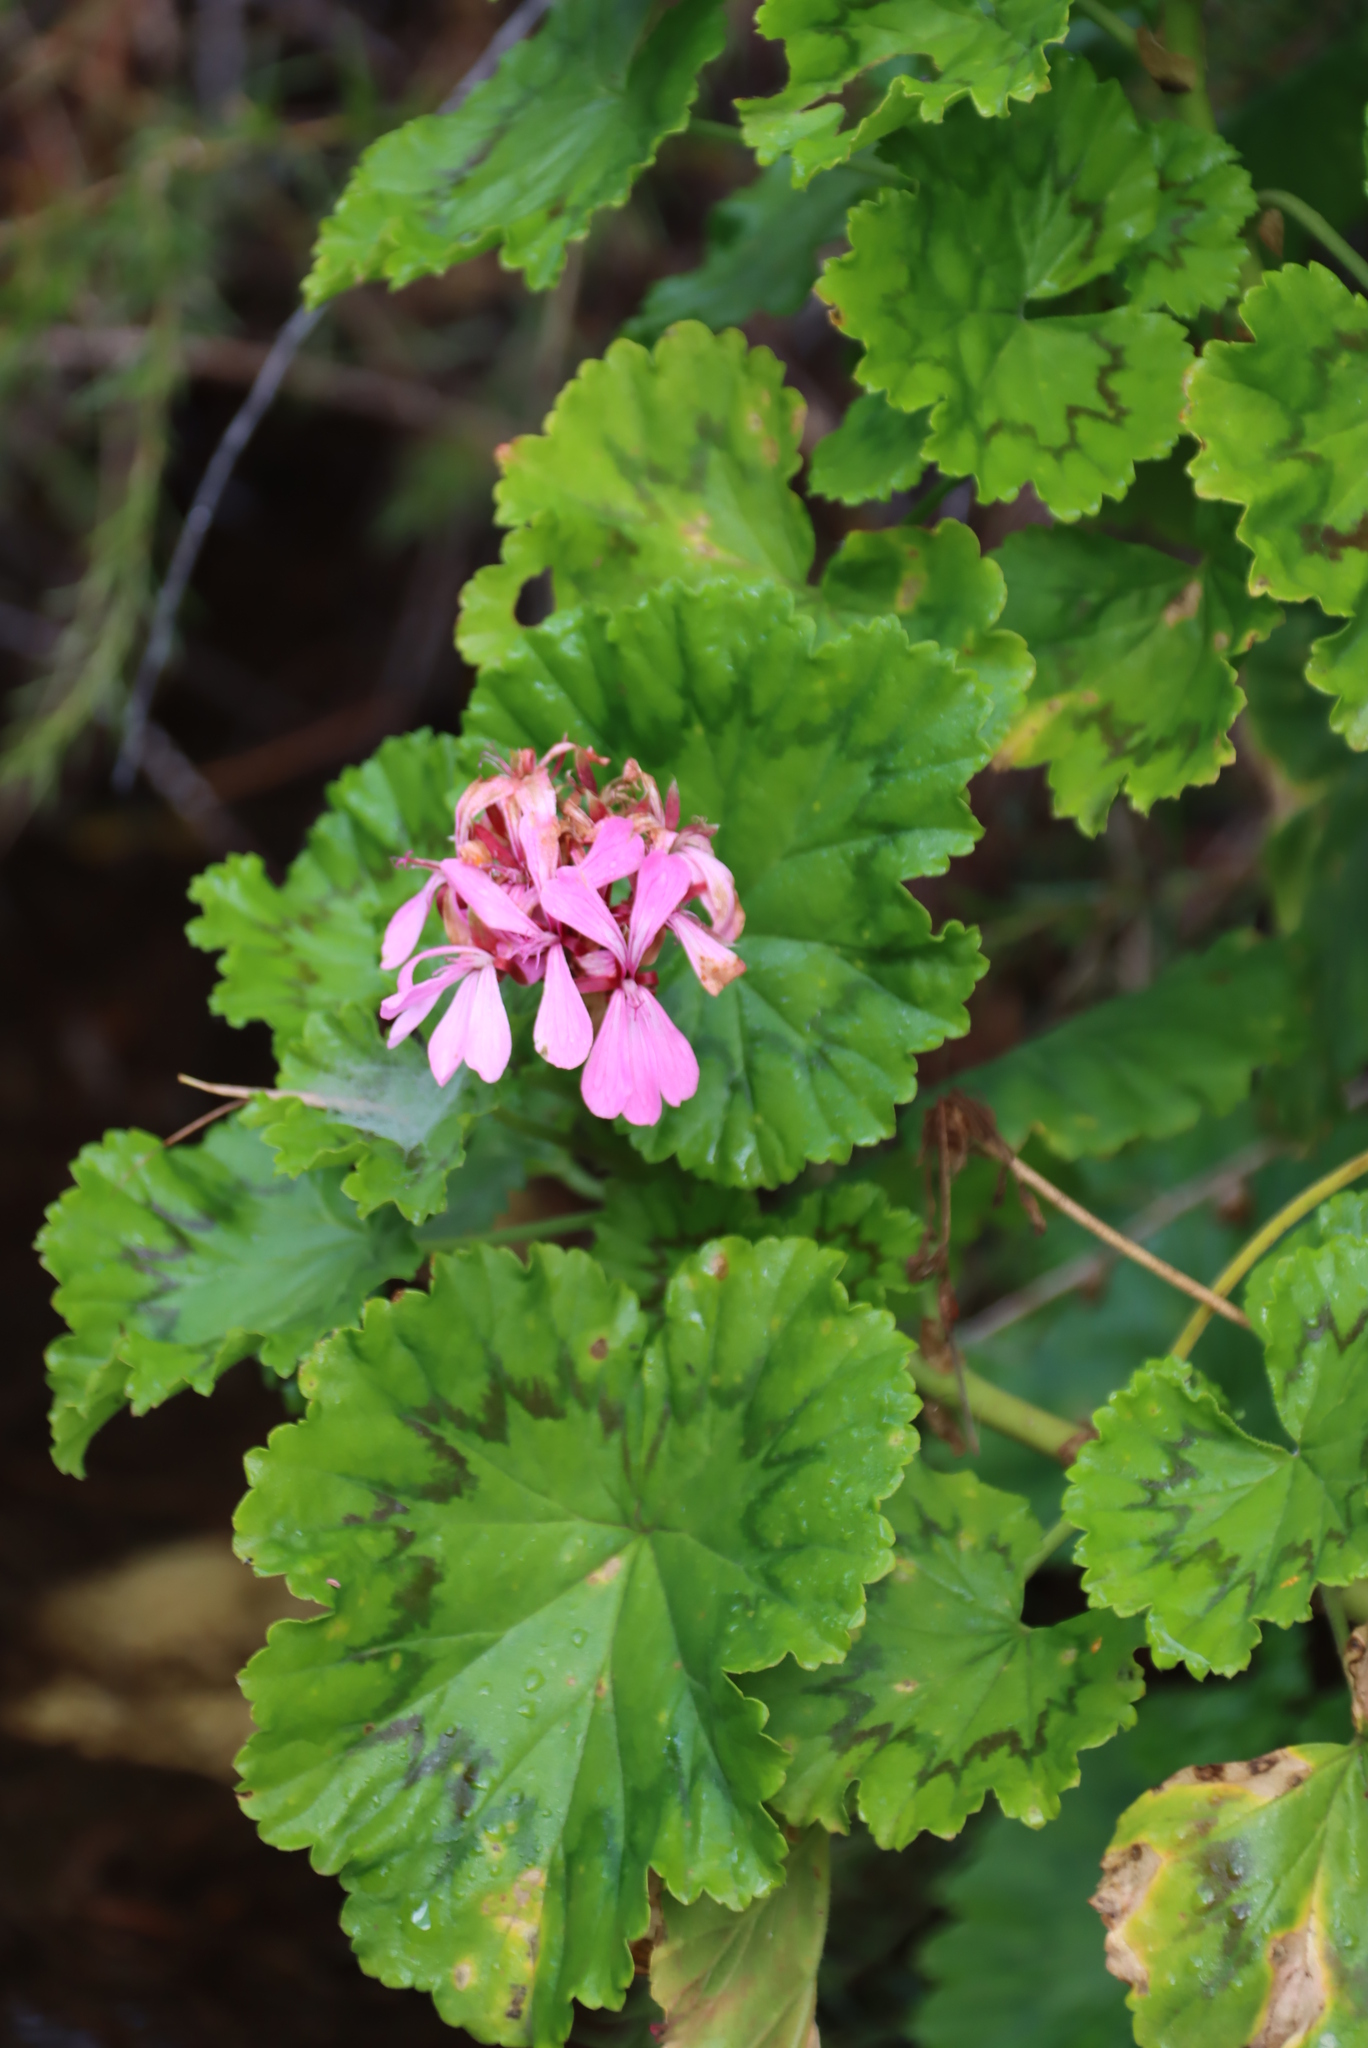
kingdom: Plantae
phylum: Tracheophyta
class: Magnoliopsida
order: Geraniales
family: Geraniaceae
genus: Pelargonium
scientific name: Pelargonium zonale
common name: Horseshoe geranium
